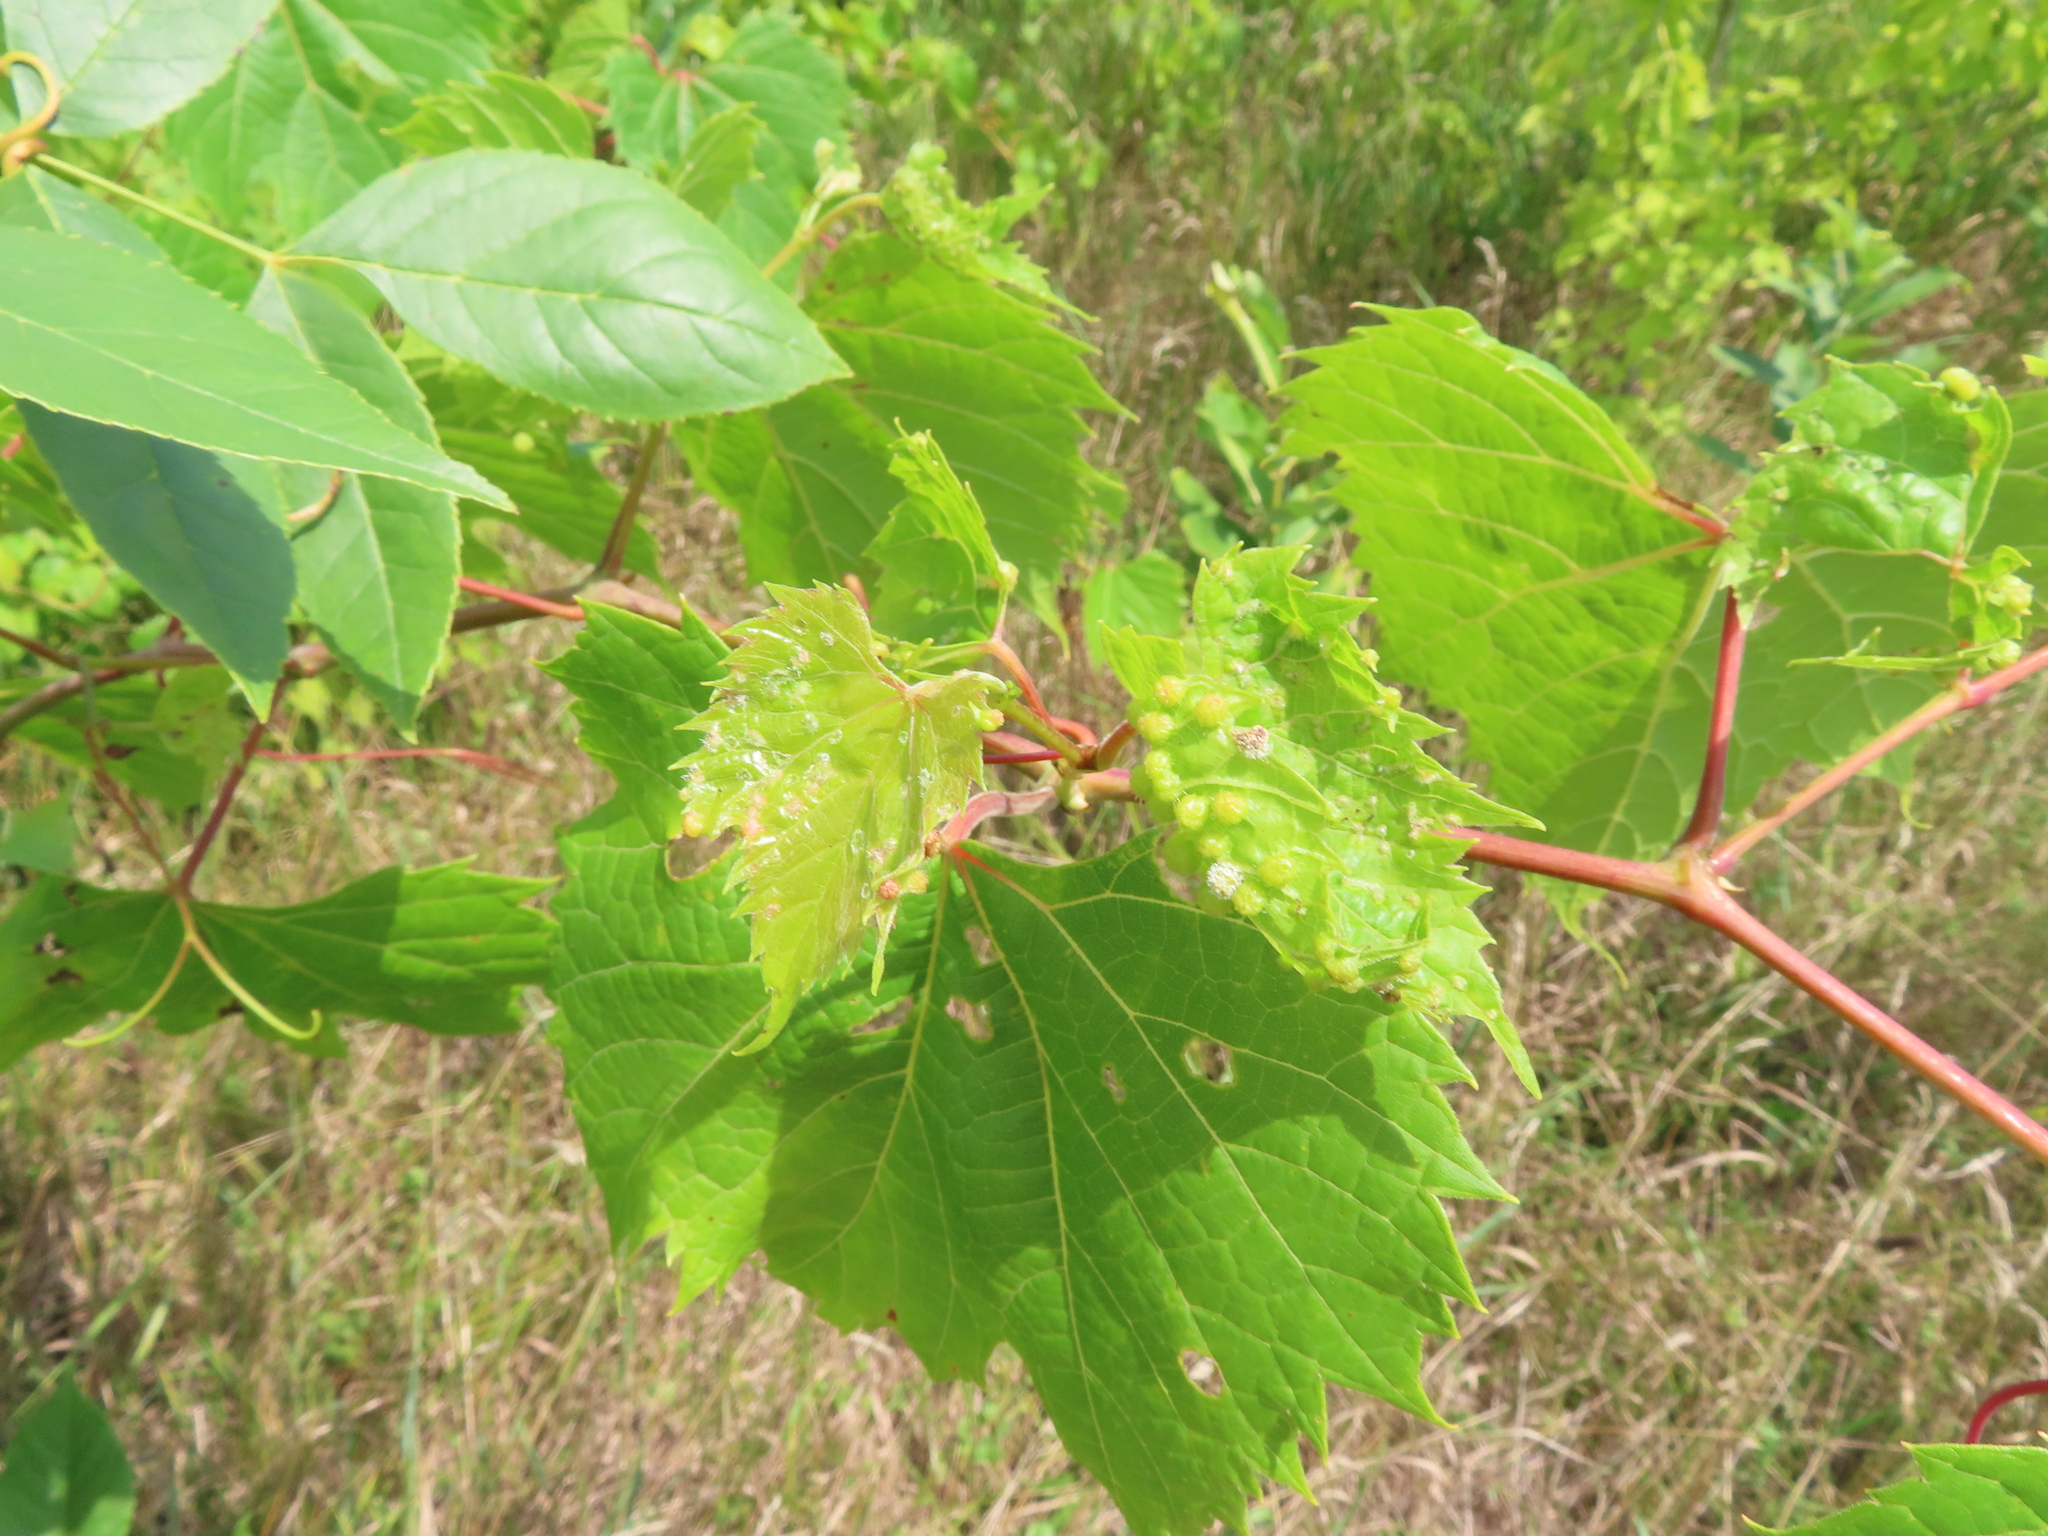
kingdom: Plantae
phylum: Tracheophyta
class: Magnoliopsida
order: Vitales
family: Vitaceae
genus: Vitis
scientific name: Vitis riparia
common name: Frost grape
